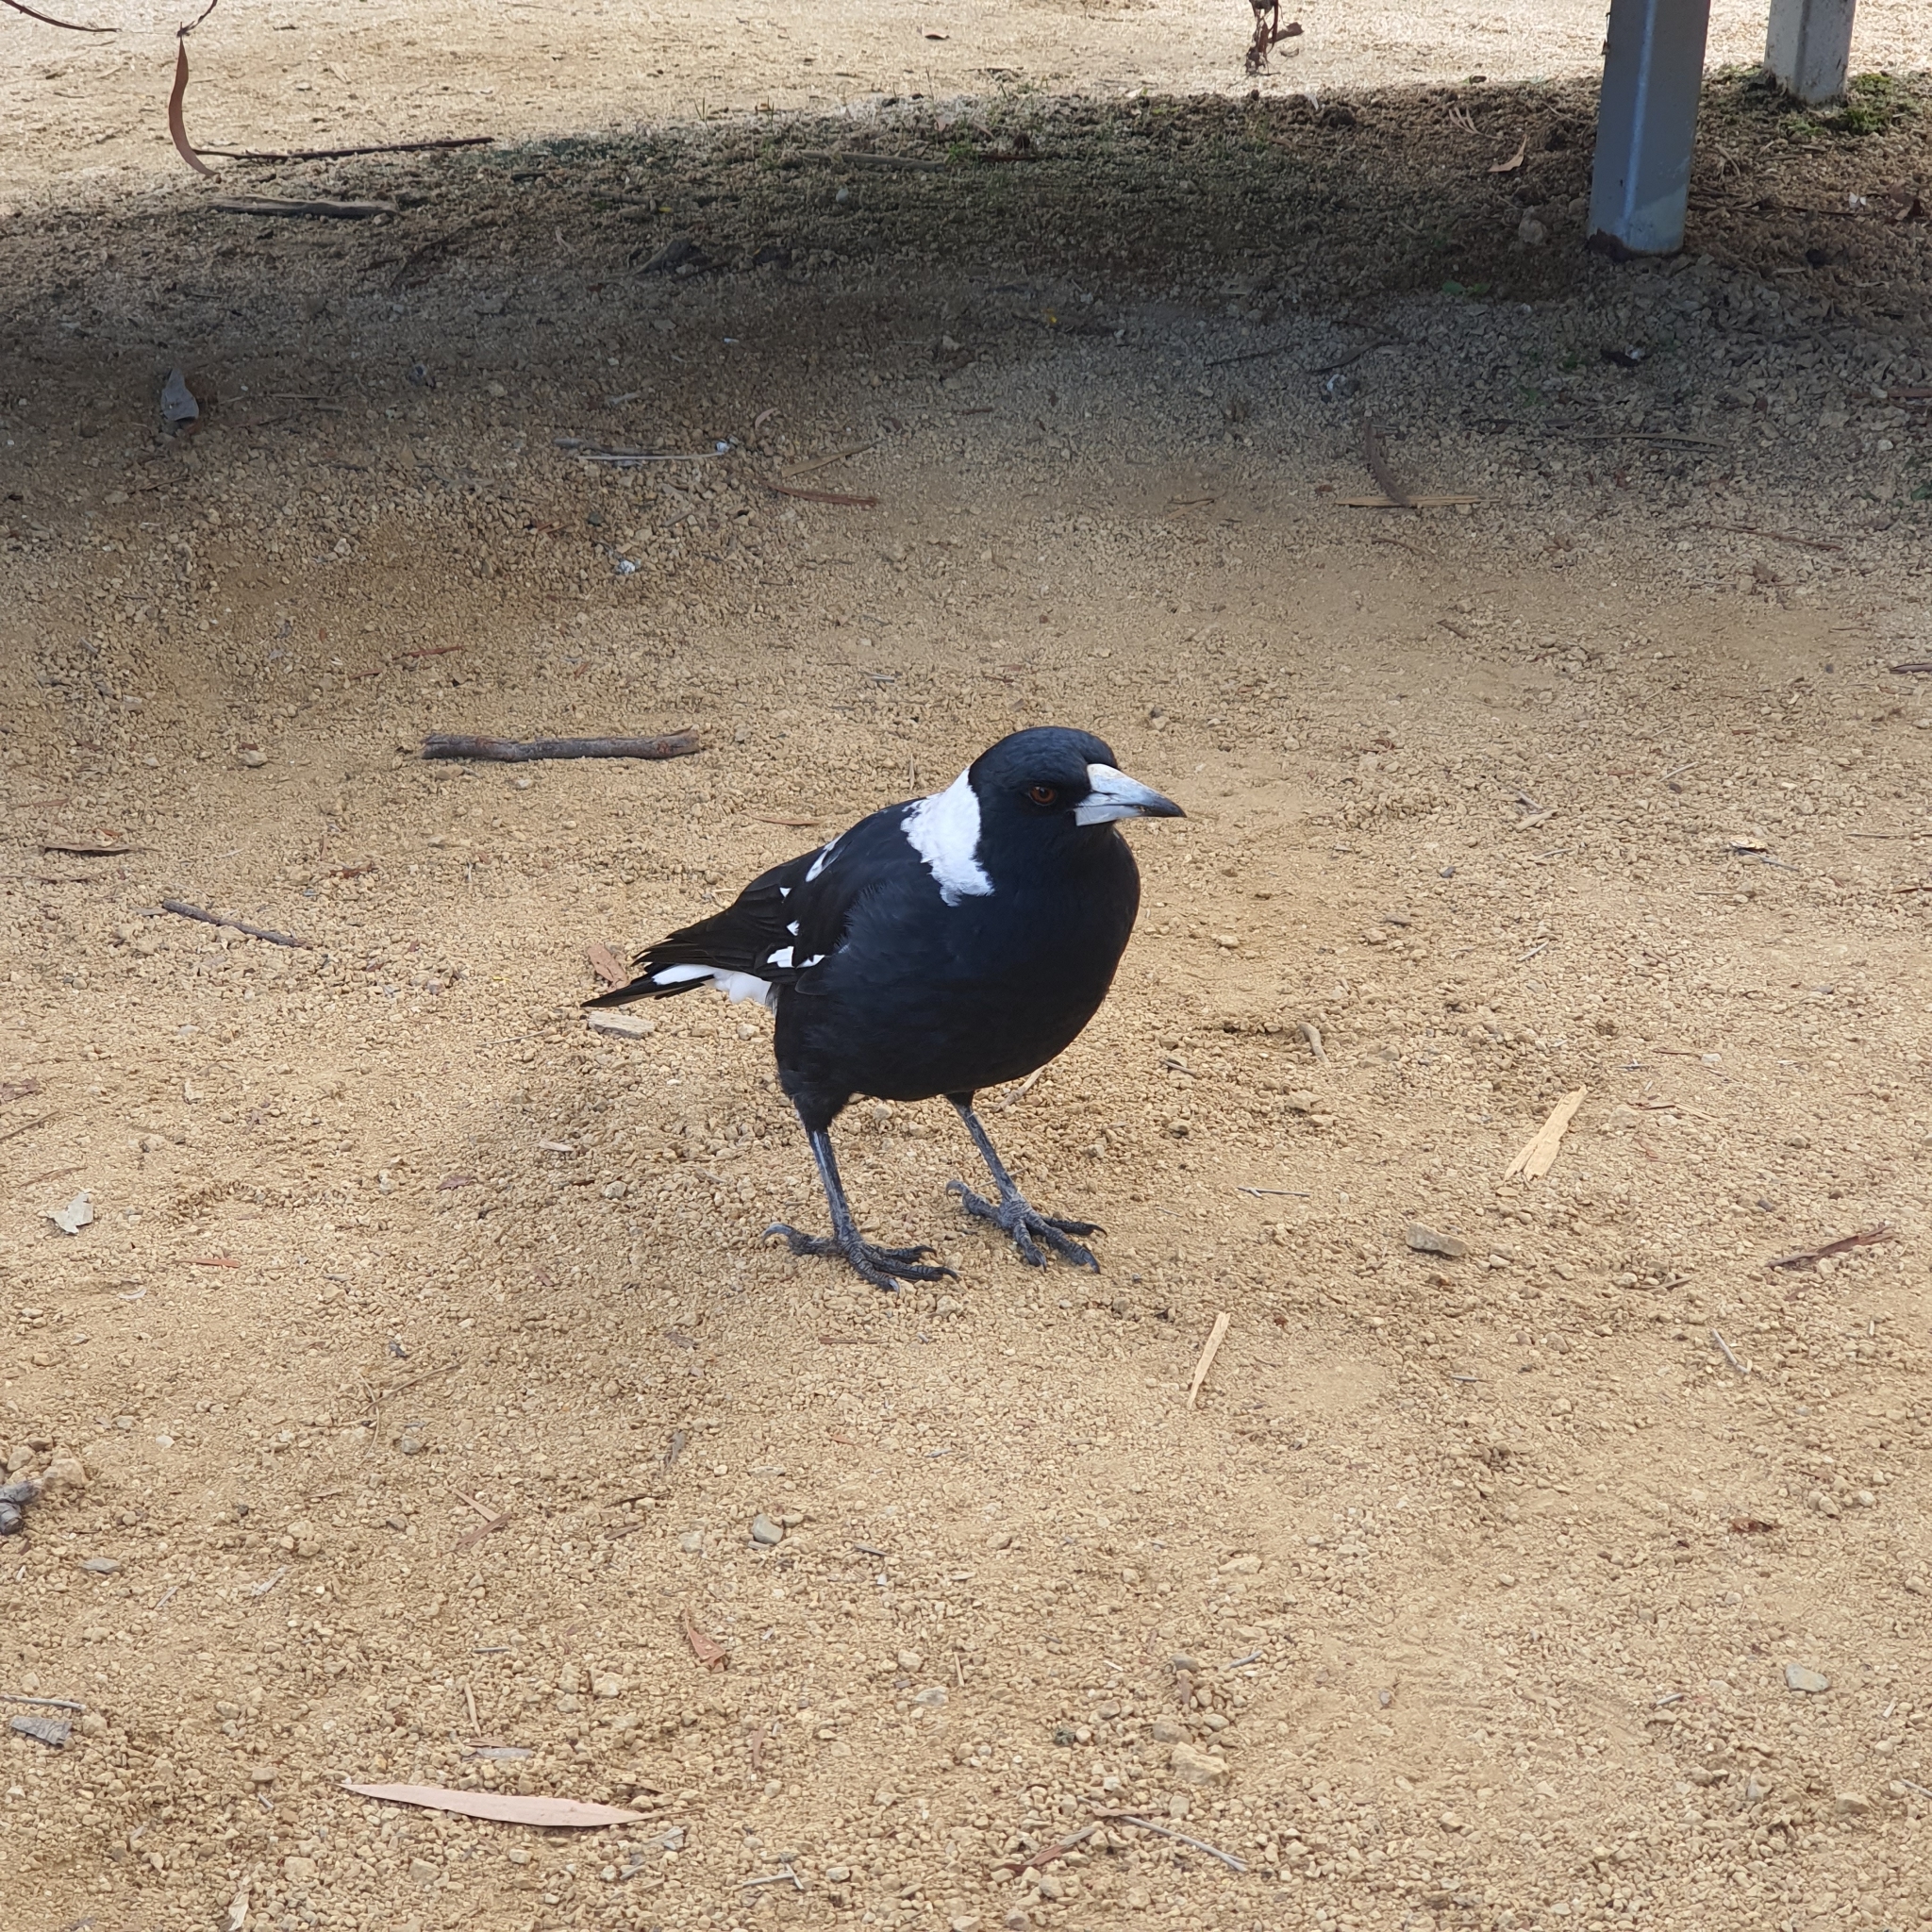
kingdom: Animalia
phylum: Chordata
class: Aves
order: Passeriformes
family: Cracticidae
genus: Gymnorhina
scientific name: Gymnorhina tibicen
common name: Australian magpie
